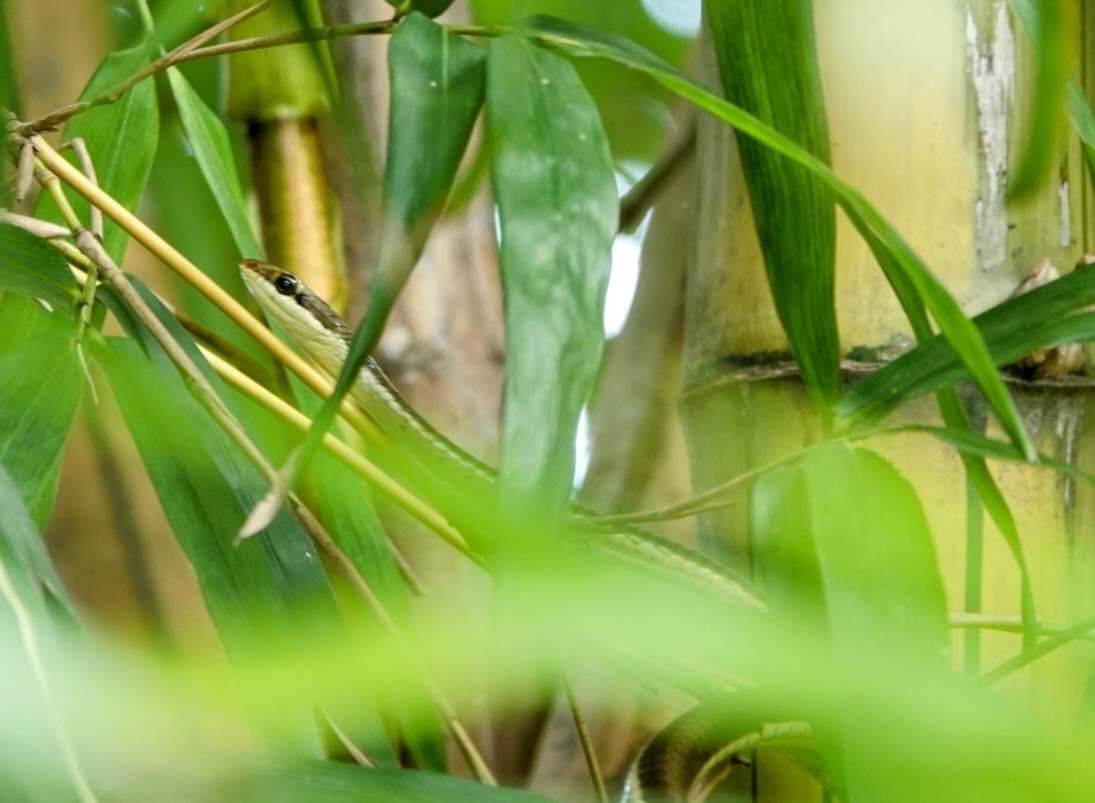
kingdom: Animalia
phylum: Chordata
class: Squamata
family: Colubridae
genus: Dendrelaphis
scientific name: Dendrelaphis tristis
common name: Daudin's bronzeback
